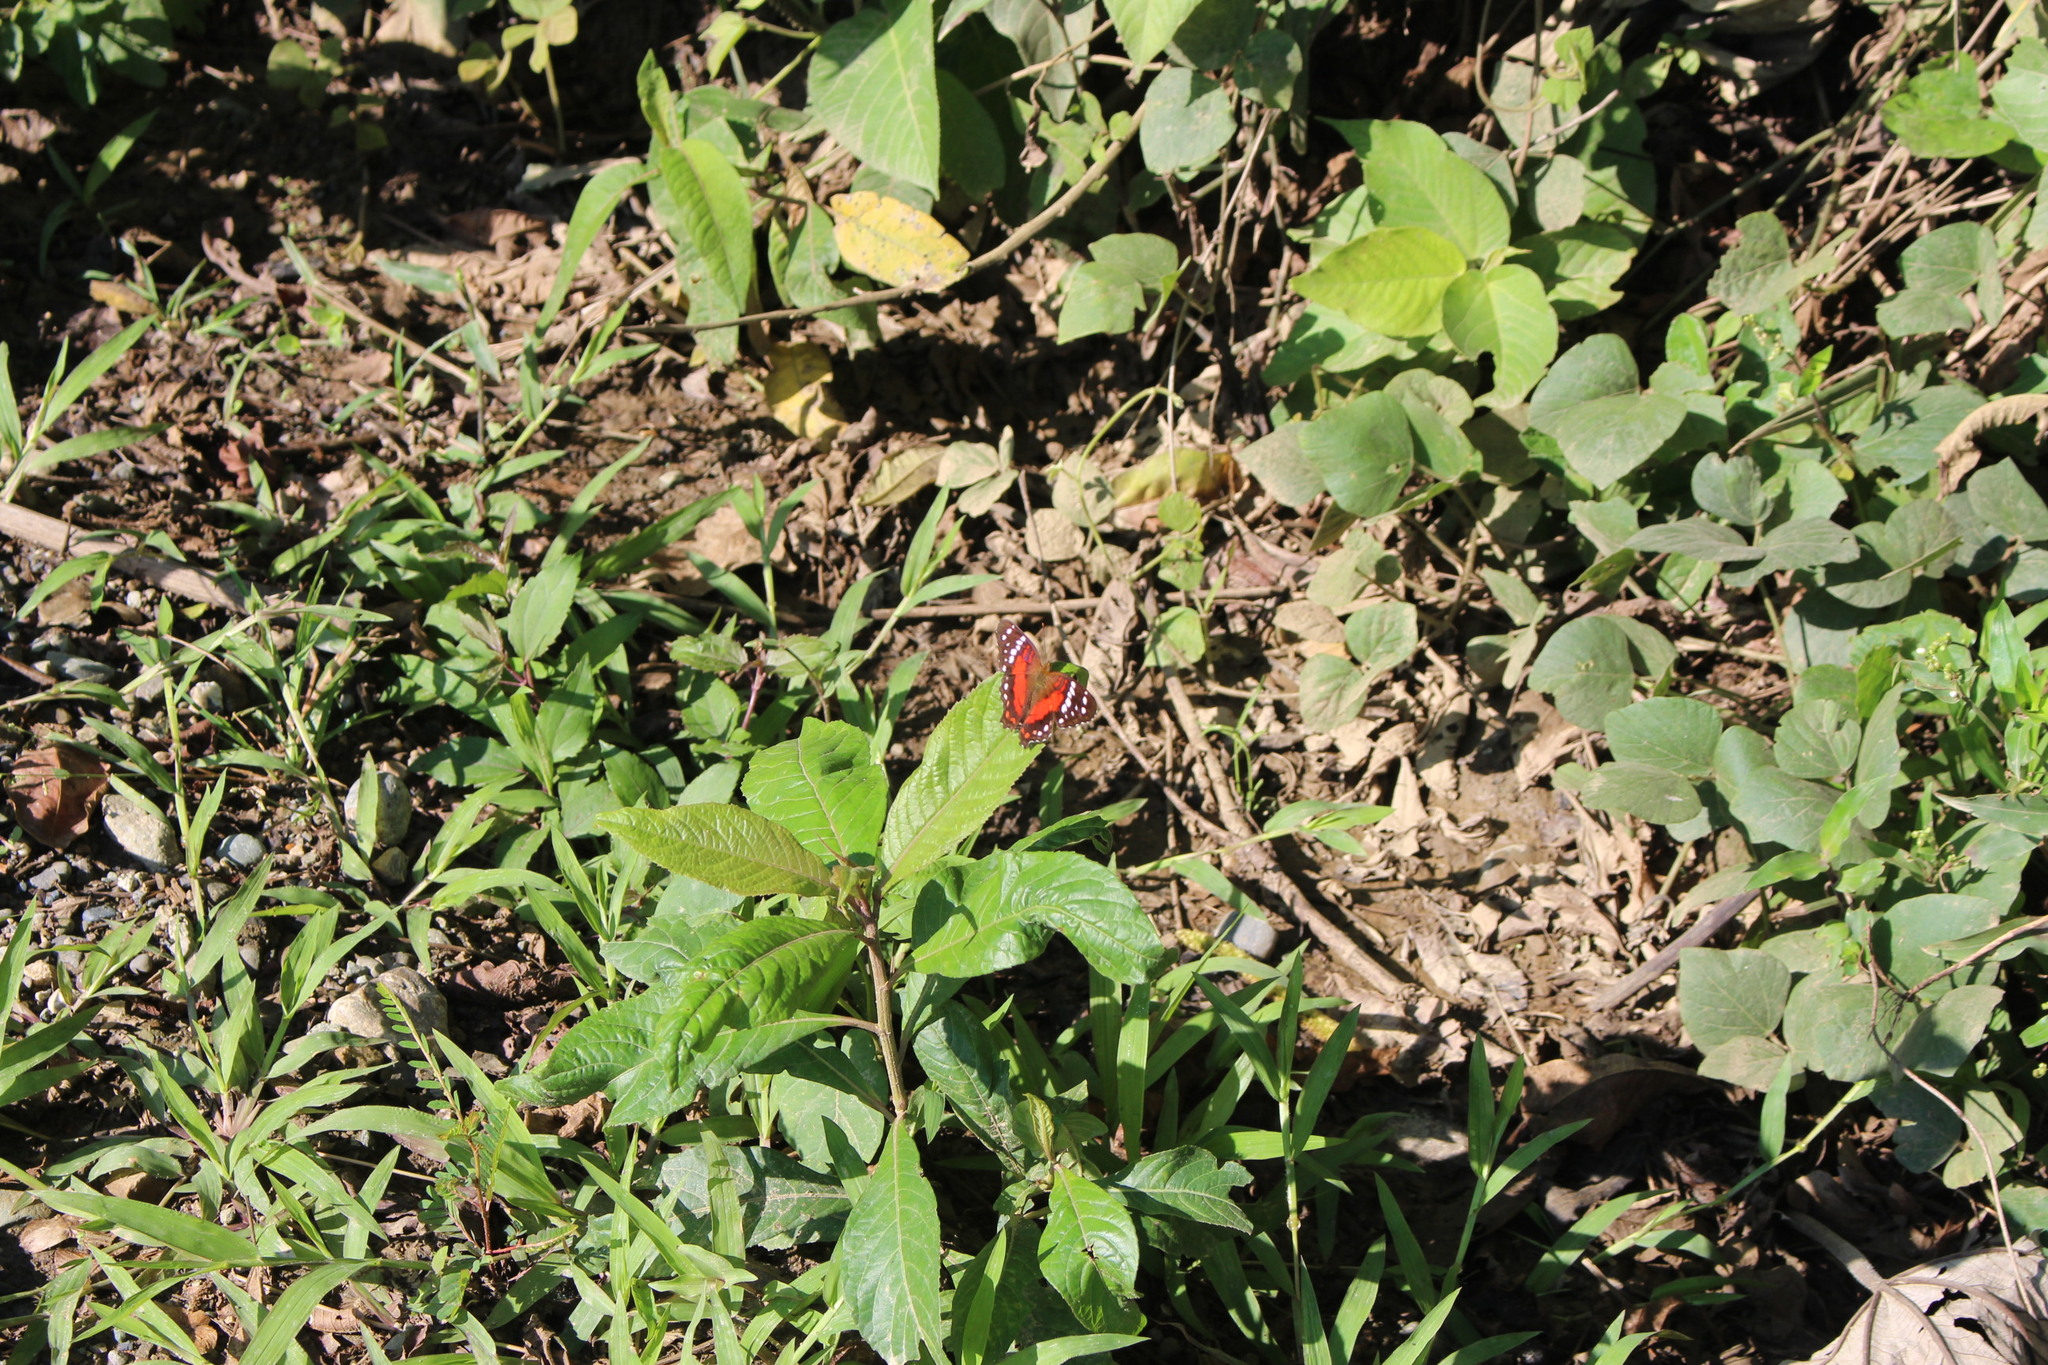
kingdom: Animalia
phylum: Arthropoda
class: Insecta
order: Lepidoptera
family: Nymphalidae
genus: Anartia
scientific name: Anartia amathea
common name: Red peacock
